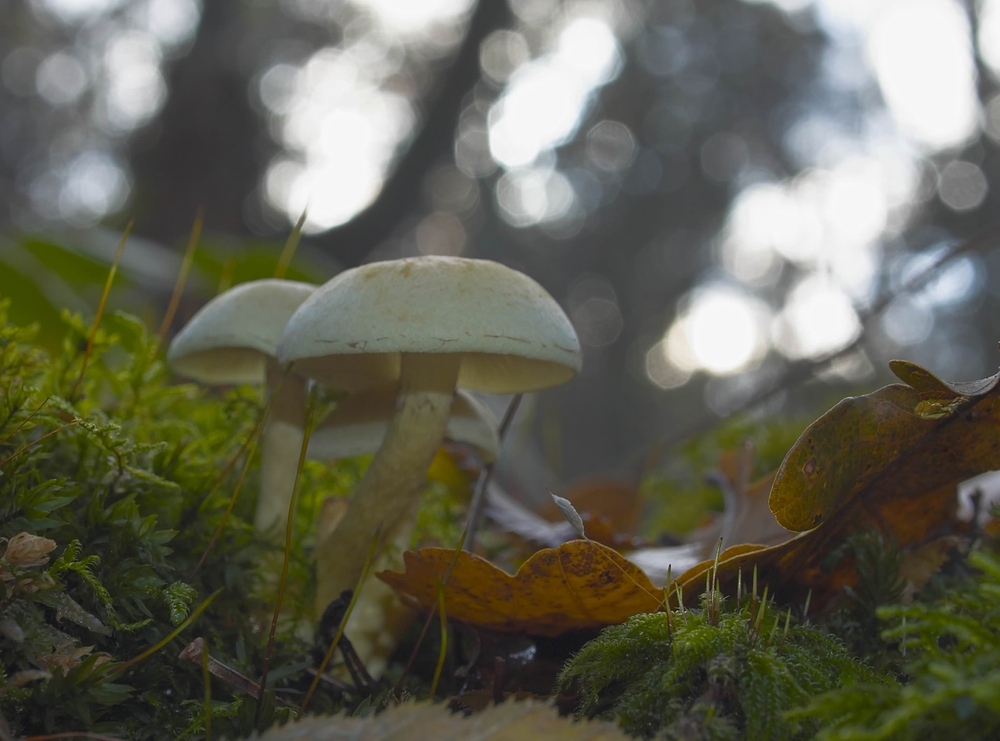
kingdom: Fungi
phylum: Basidiomycota
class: Agaricomycetes
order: Agaricales
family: Strophariaceae
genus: Hypholoma
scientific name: Hypholoma fasciculare
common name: Sulphur tuft
